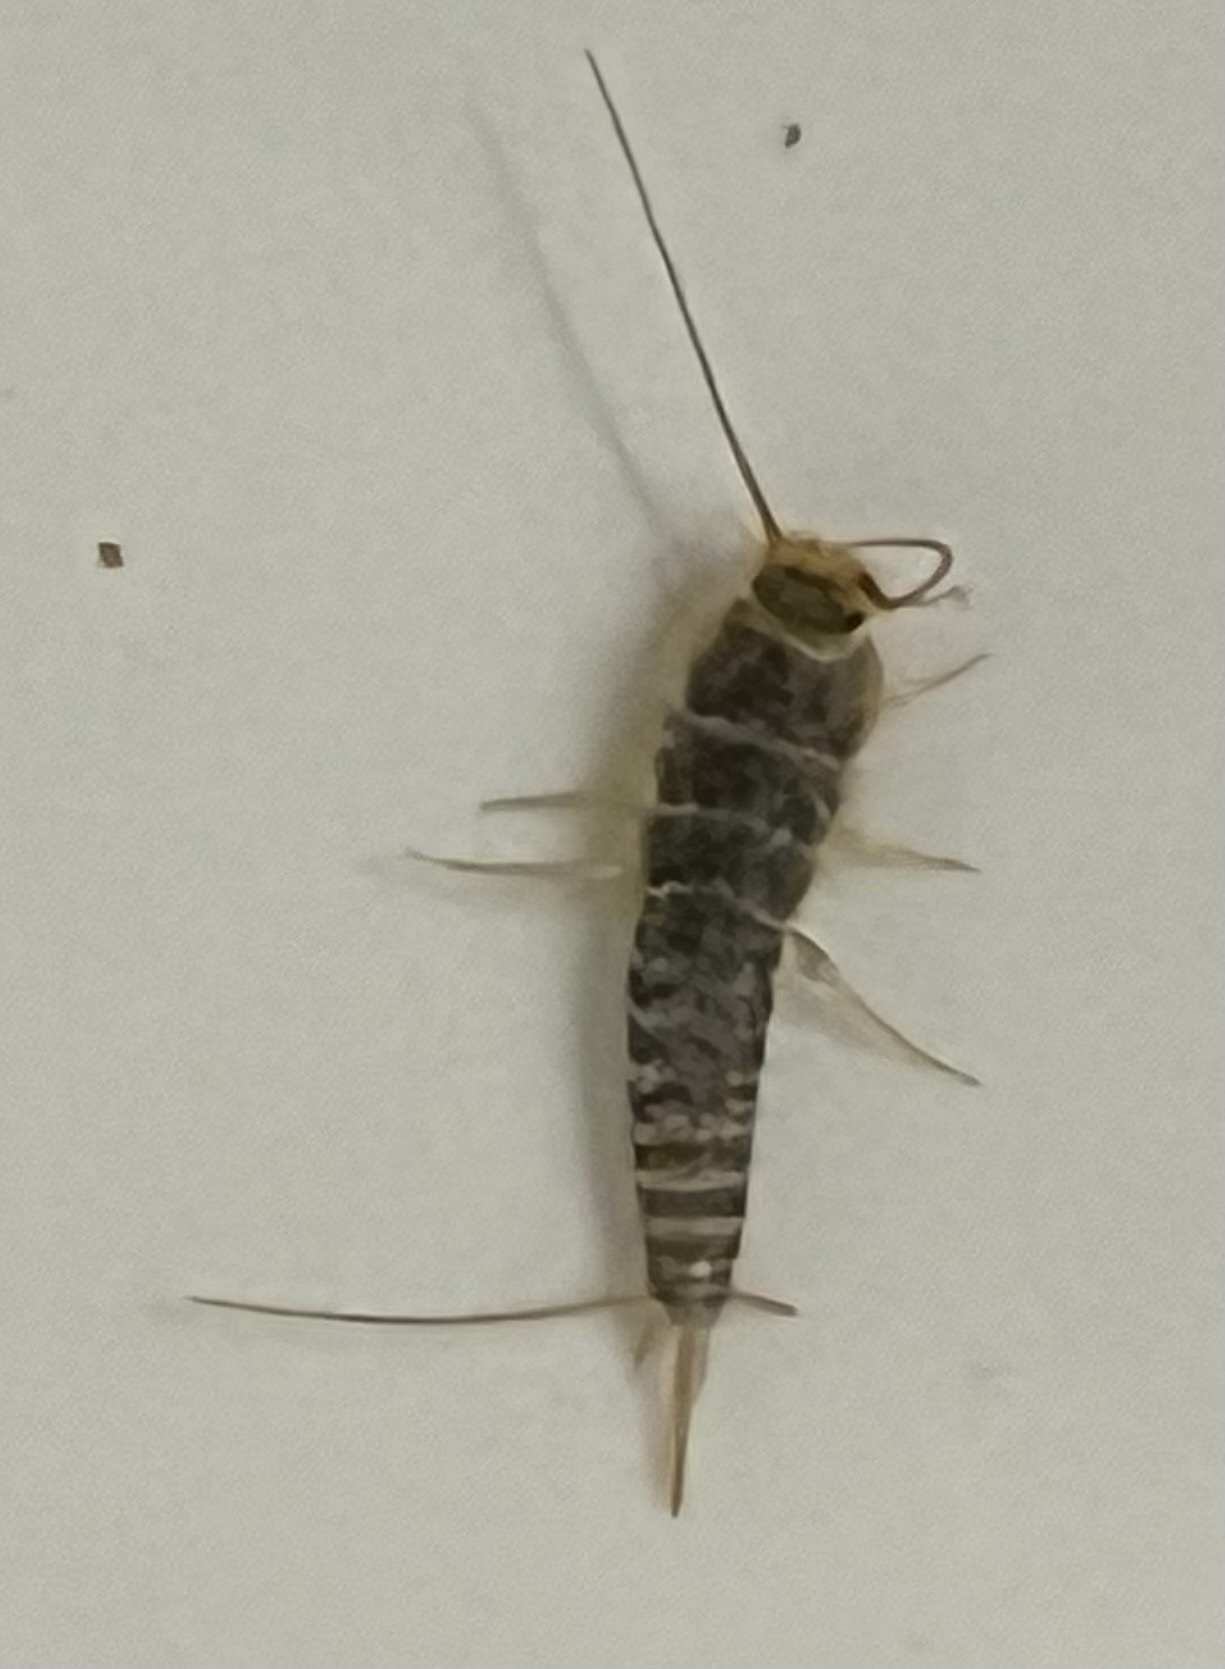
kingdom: Animalia
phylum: Arthropoda
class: Insecta
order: Zygentoma
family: Lepismatidae
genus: Ctenolepisma
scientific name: Ctenolepisma longicaudatum
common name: Silverfish
